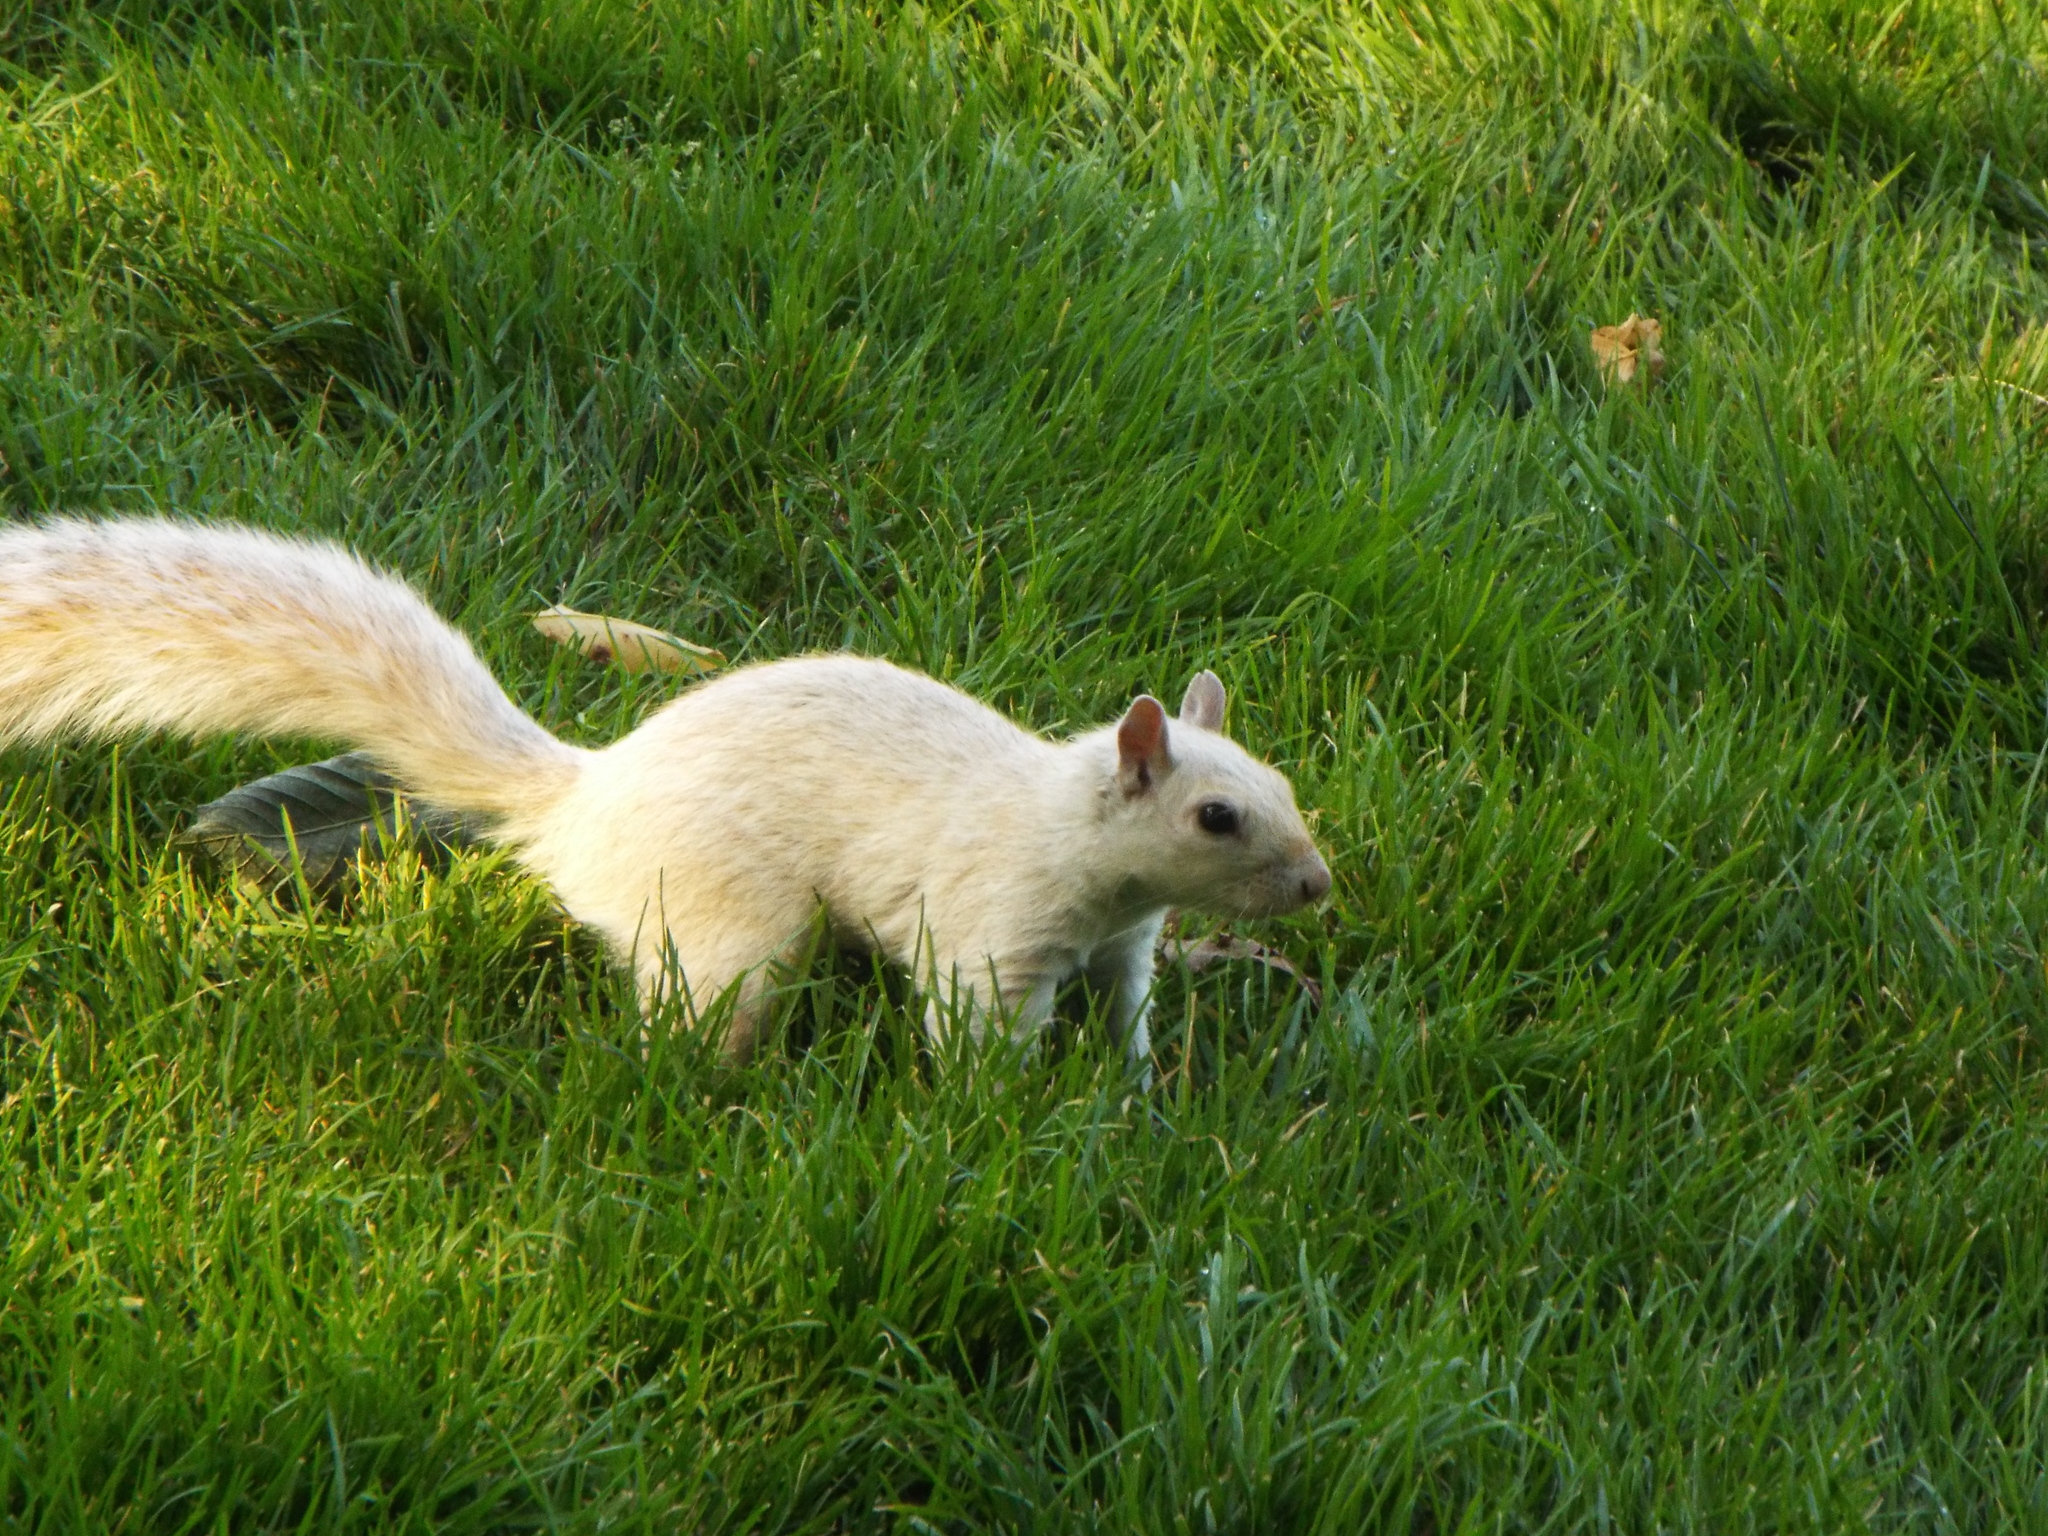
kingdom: Animalia
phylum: Chordata
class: Mammalia
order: Rodentia
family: Sciuridae
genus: Sciurus
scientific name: Sciurus carolinensis
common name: Eastern gray squirrel
